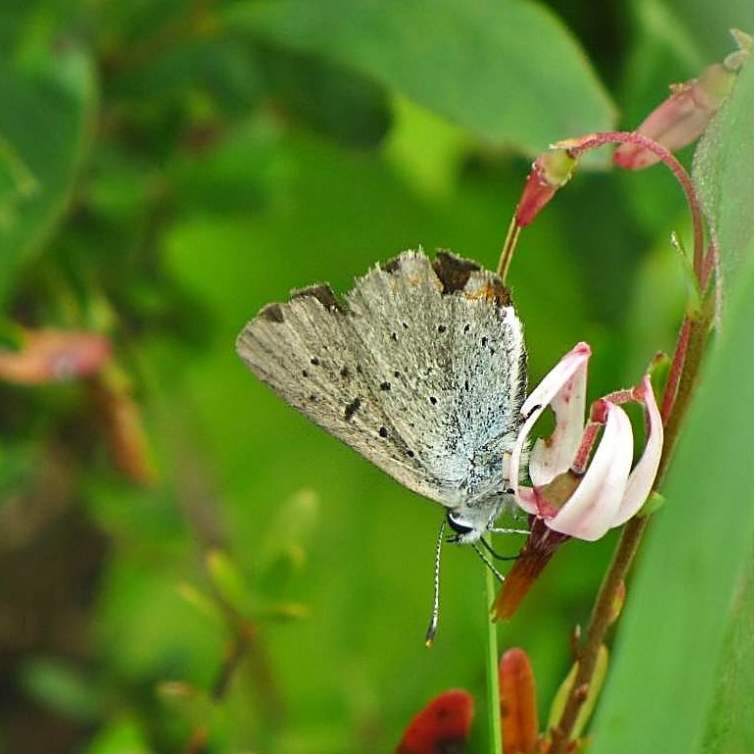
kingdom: Animalia
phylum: Arthropoda
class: Insecta
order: Lepidoptera
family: Lycaenidae
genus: Tharsalea
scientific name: Tharsalea epixanthe
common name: Bog copper
